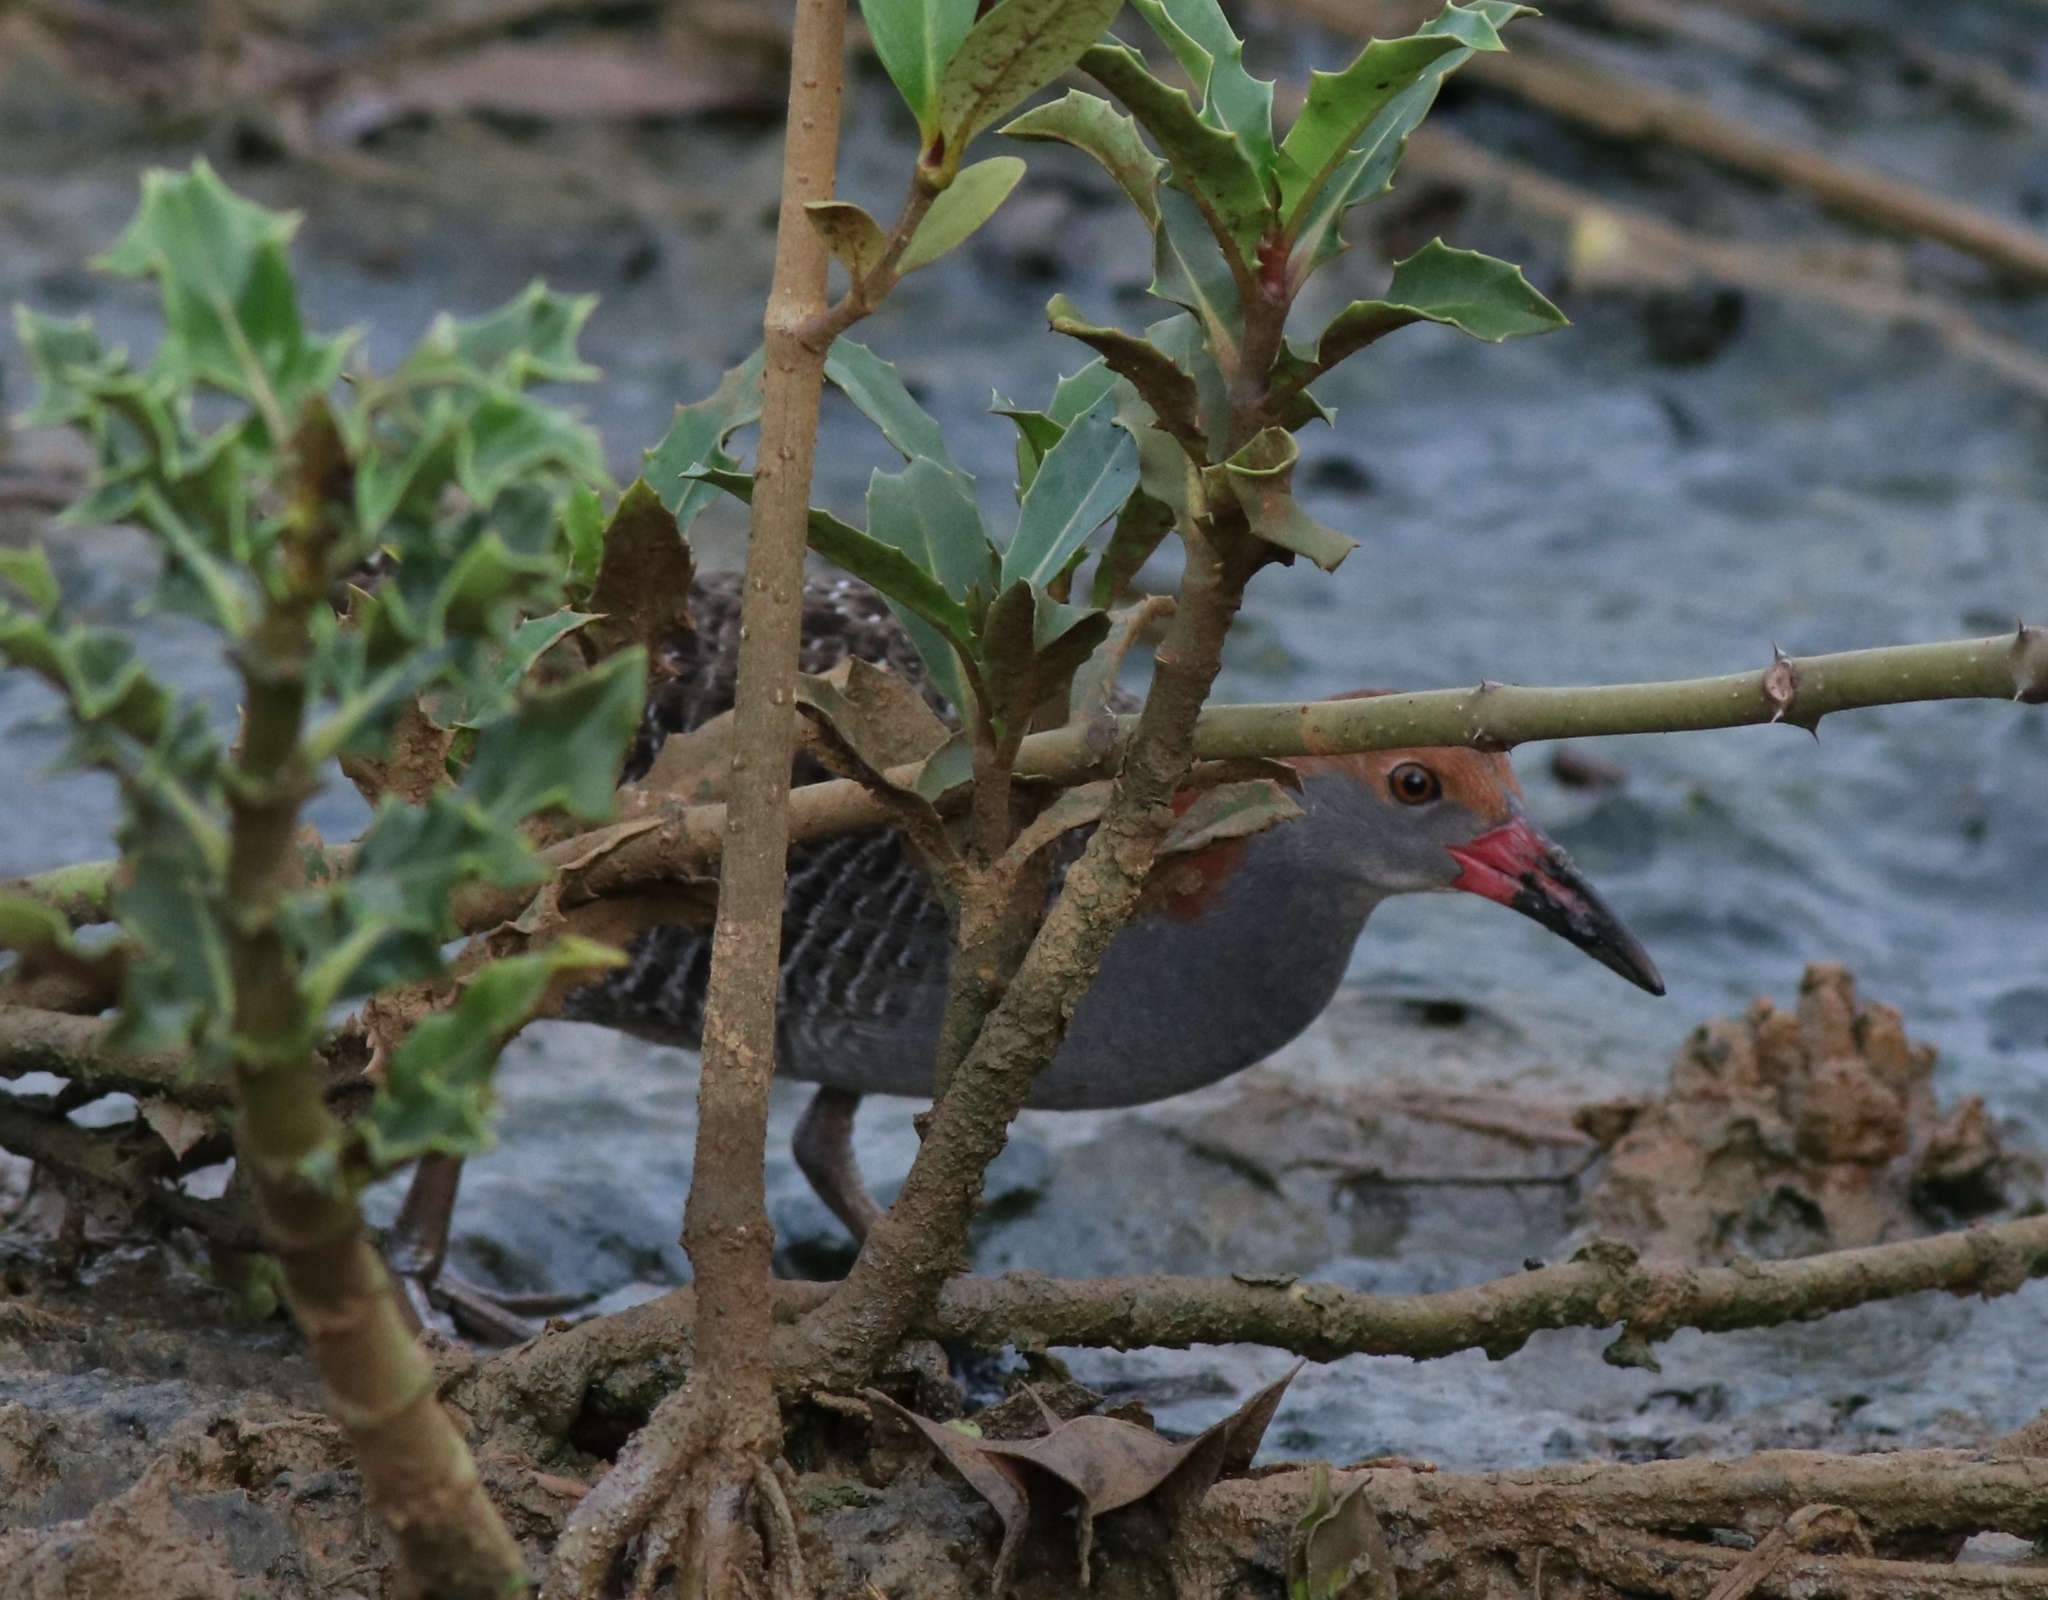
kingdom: Animalia
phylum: Chordata
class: Aves
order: Gruiformes
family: Rallidae
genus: Gallirallus
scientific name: Gallirallus striatus
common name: Slaty-breasted rail
